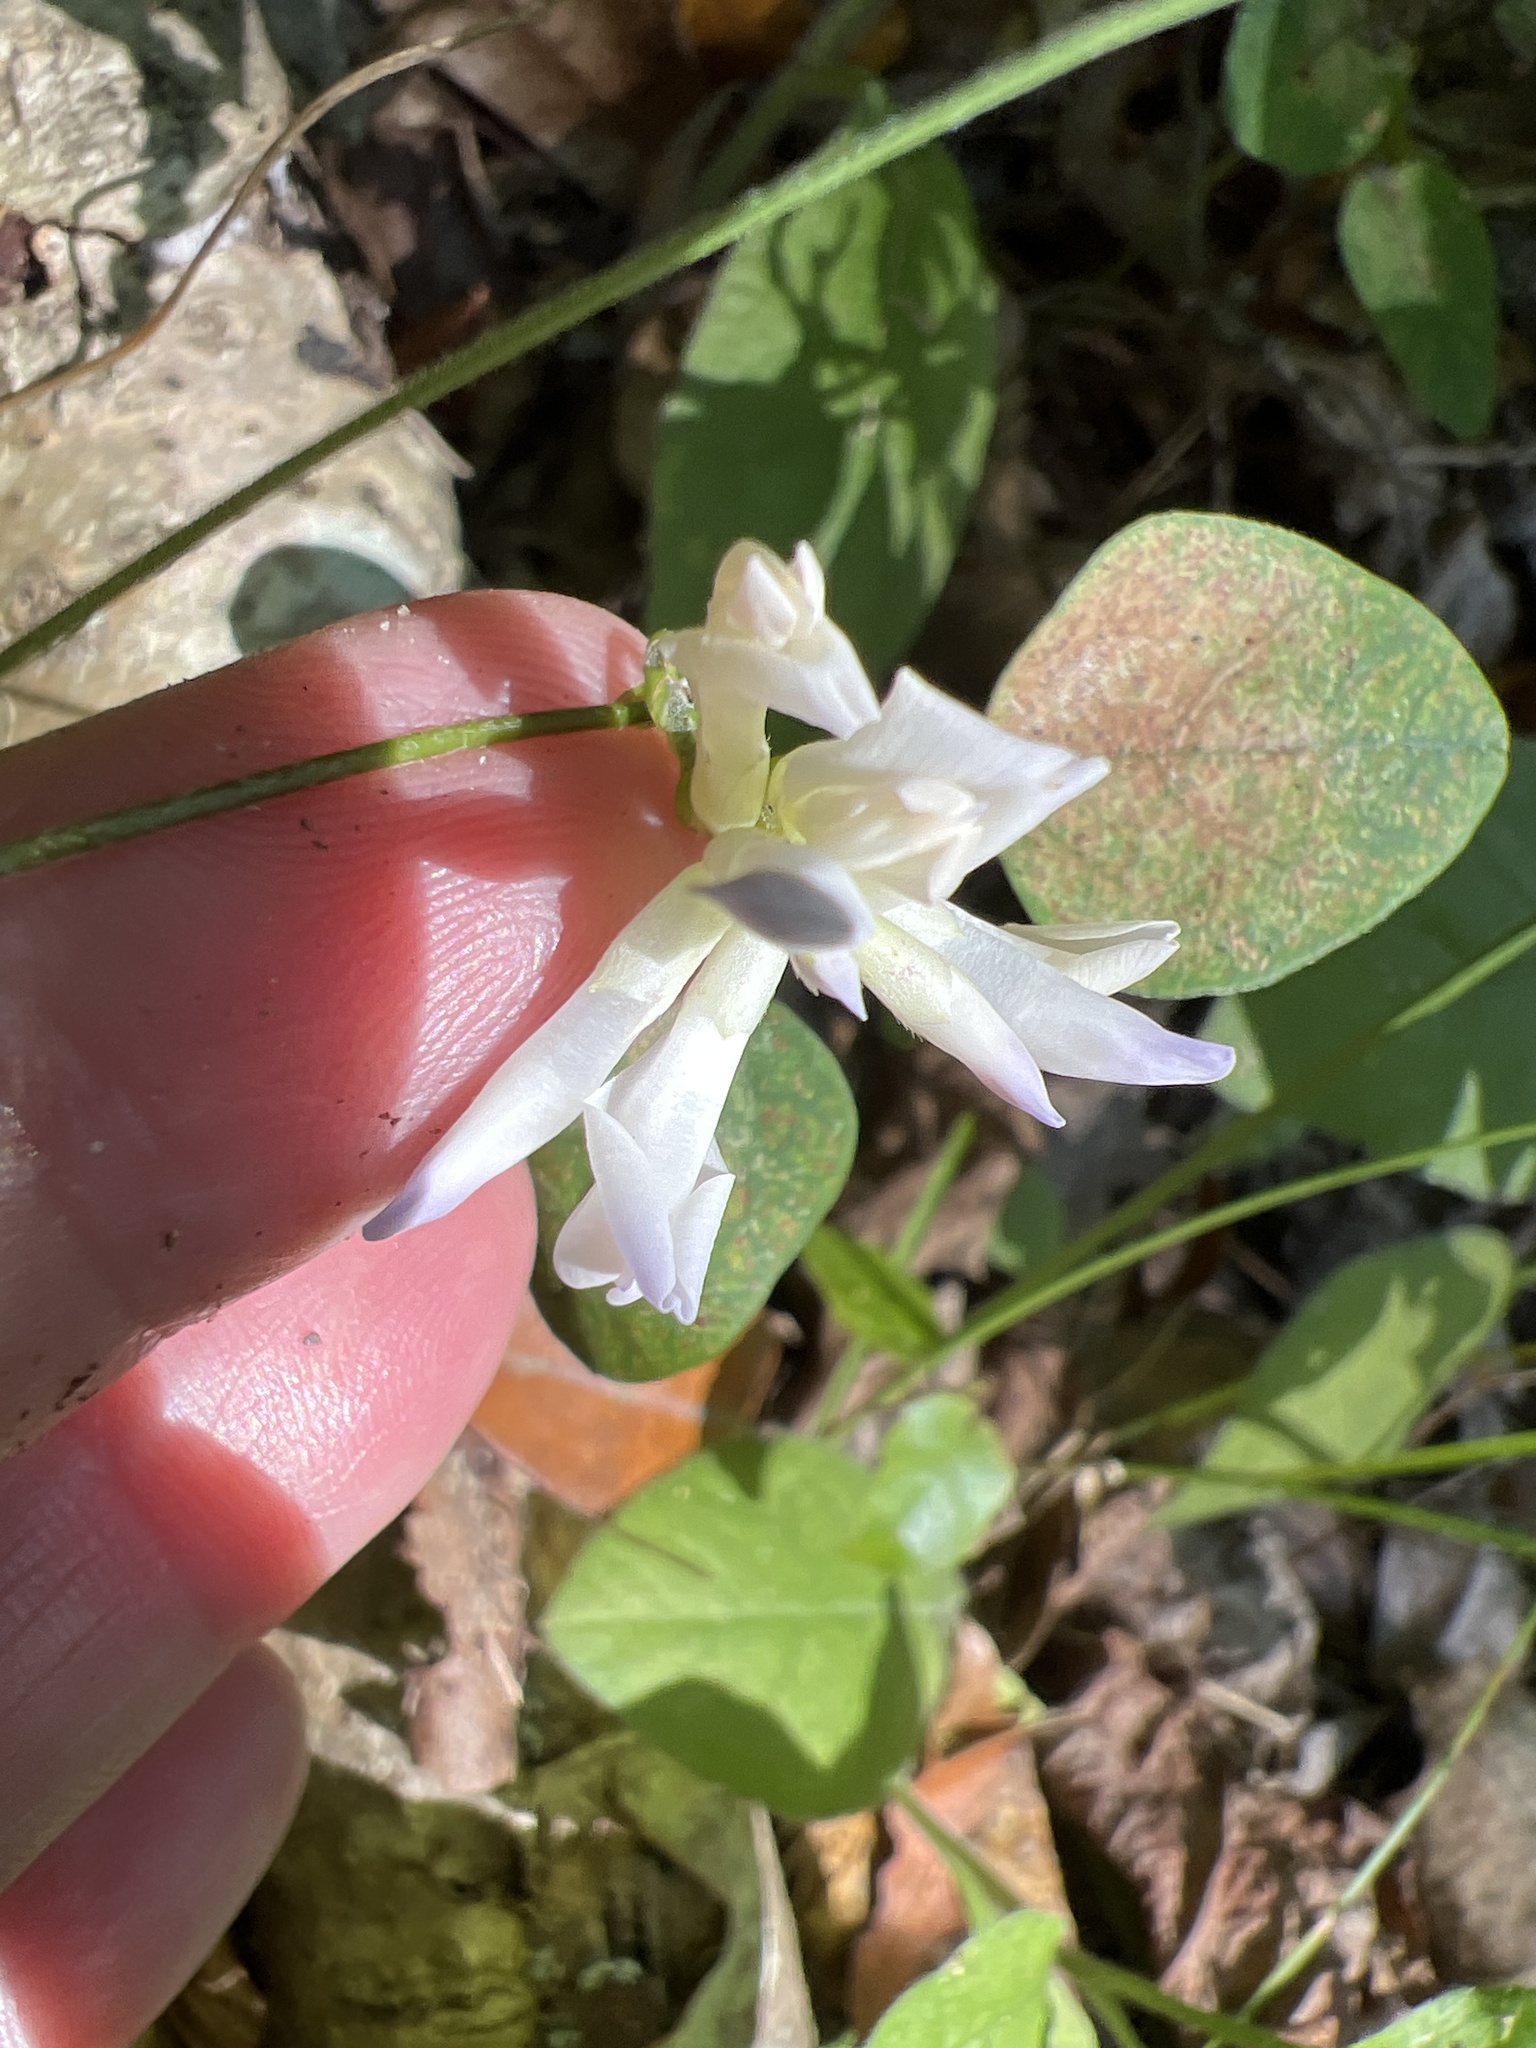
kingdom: Plantae
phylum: Tracheophyta
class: Magnoliopsida
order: Fabales
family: Fabaceae
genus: Amphicarpaea
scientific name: Amphicarpaea bracteata
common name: American hog peanut
